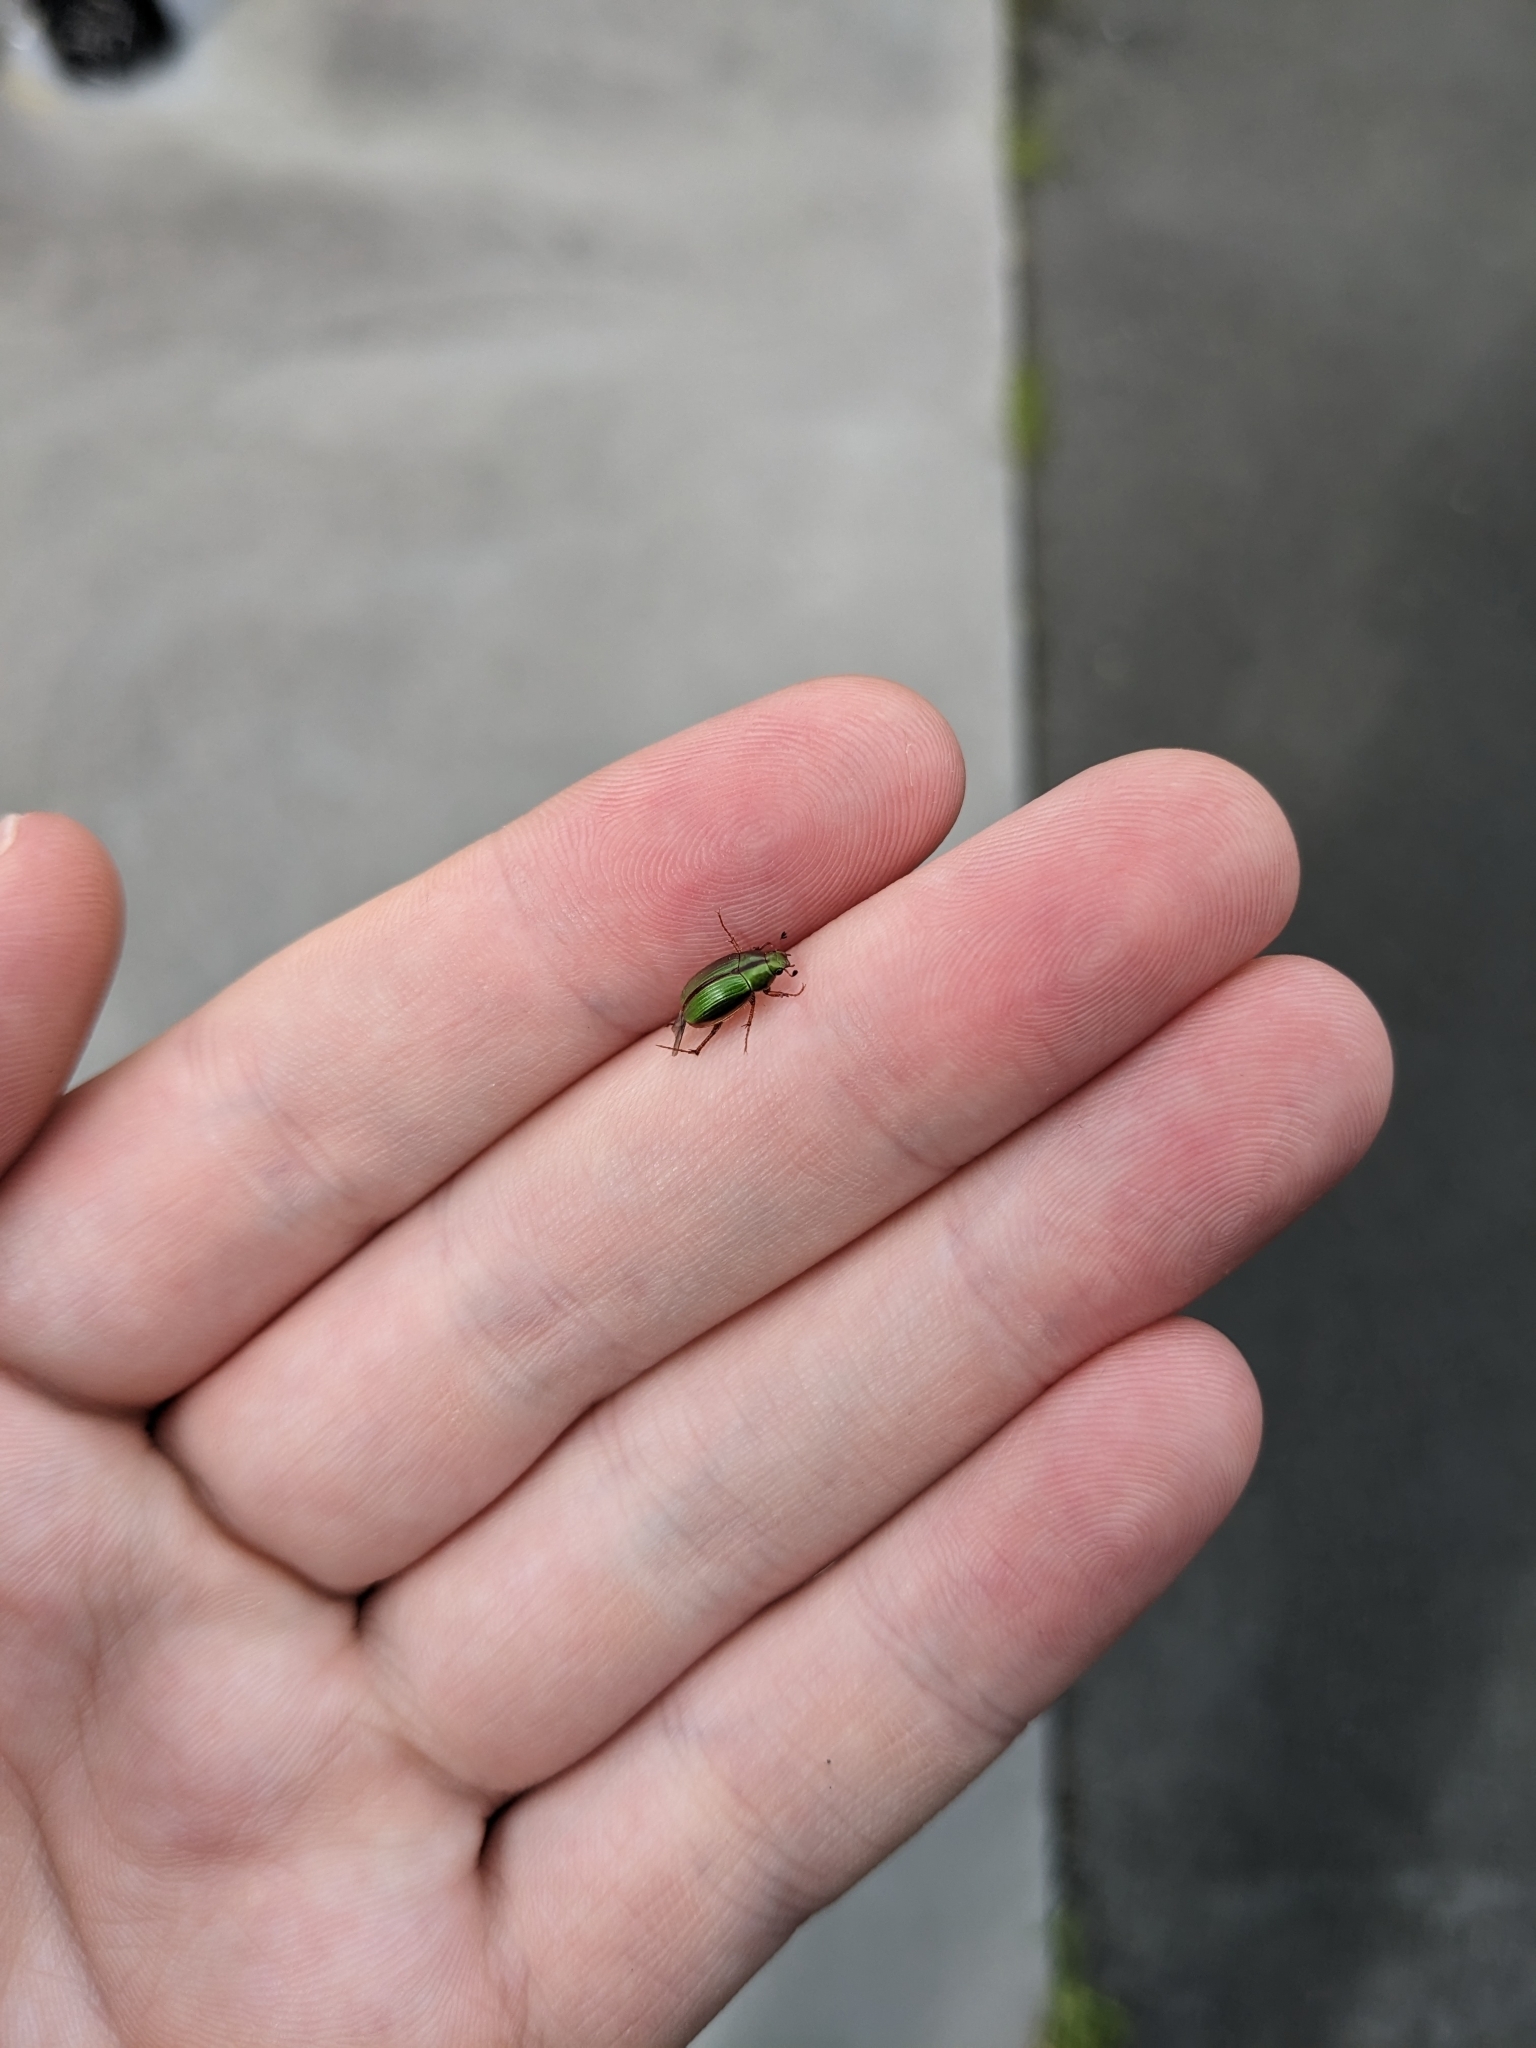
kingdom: Animalia
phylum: Arthropoda
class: Insecta
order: Coleoptera
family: Scarabaeidae
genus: Pyronota
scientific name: Pyronota festiva
